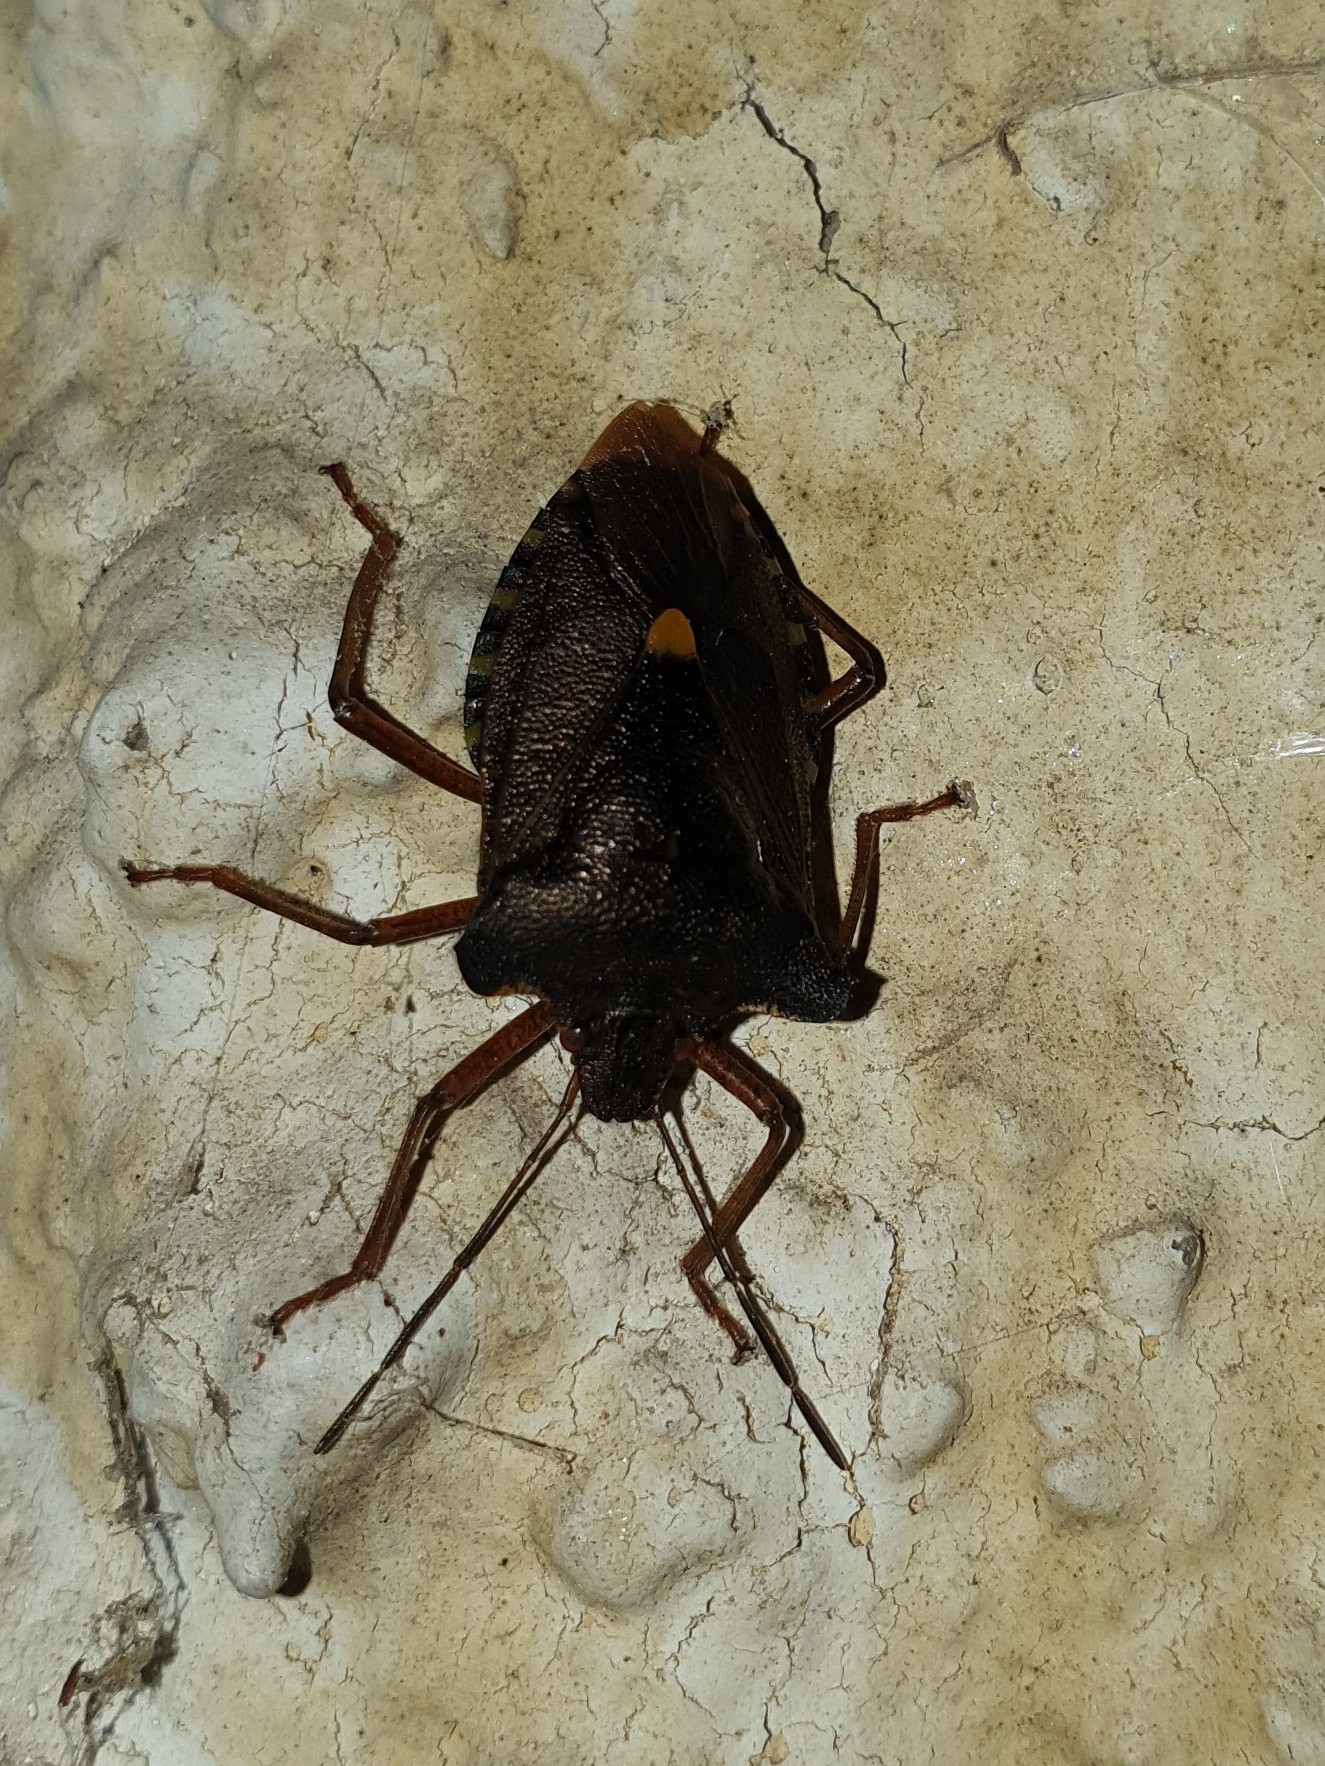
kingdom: Animalia
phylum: Arthropoda
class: Insecta
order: Hemiptera
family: Pentatomidae
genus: Pentatoma
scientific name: Pentatoma rufipes
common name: Forest bug
